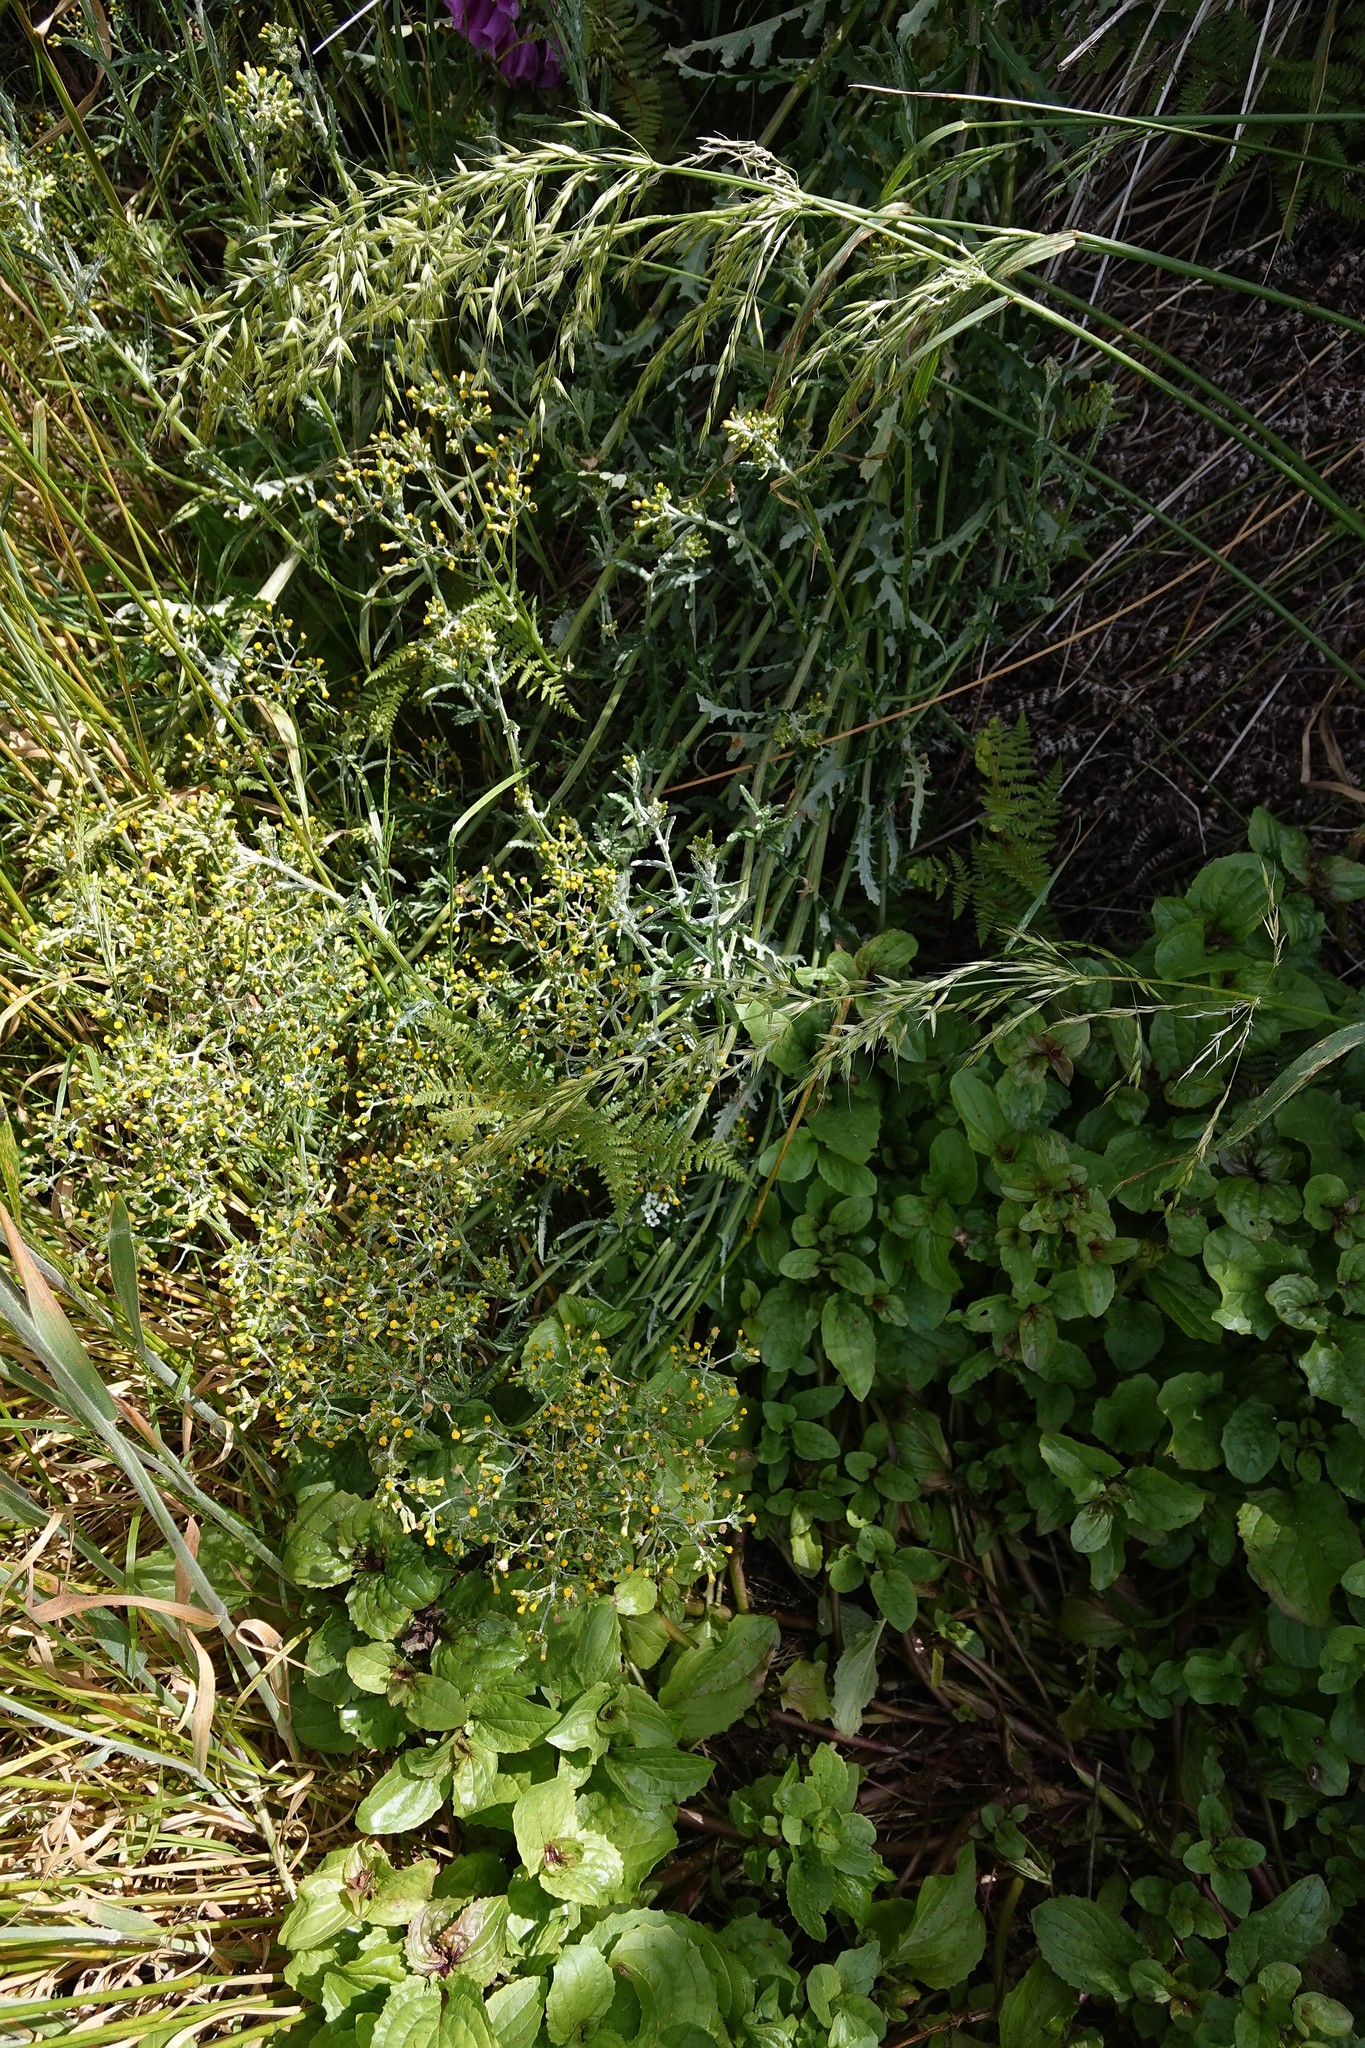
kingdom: Plantae
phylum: Tracheophyta
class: Magnoliopsida
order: Asterales
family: Asteraceae
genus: Senecio
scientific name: Senecio glomeratus
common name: Cutleaf burnweed
